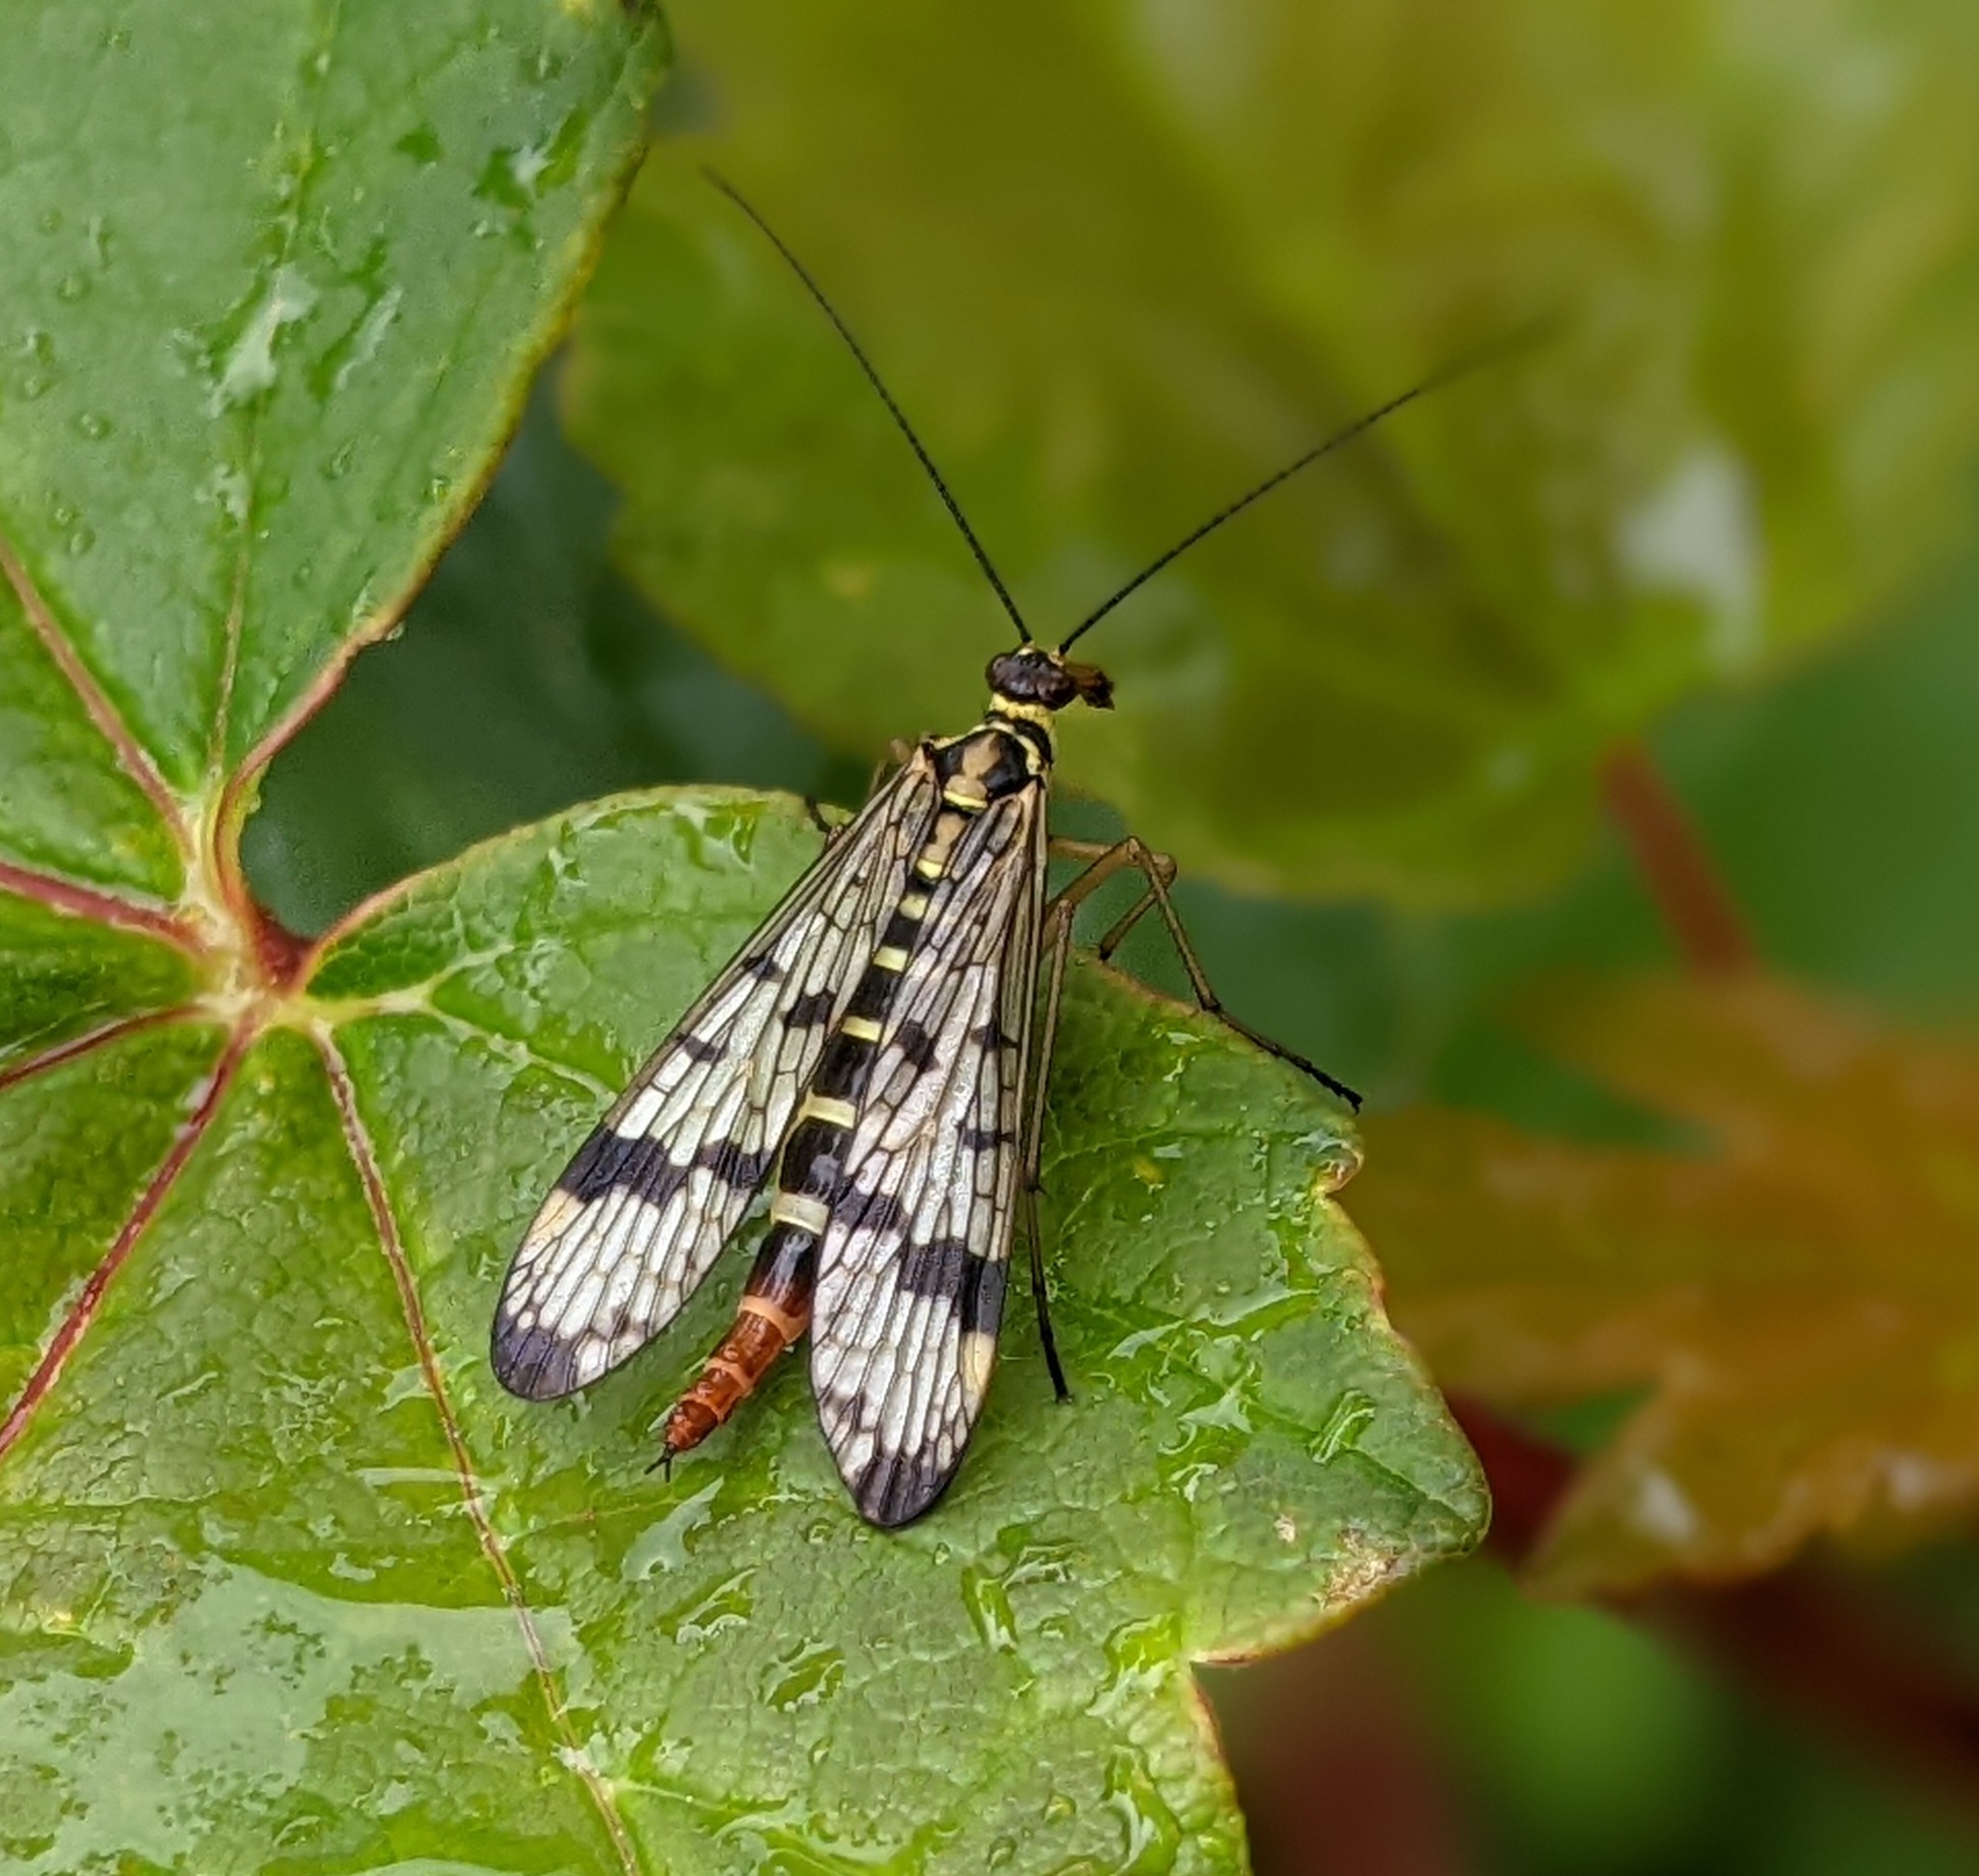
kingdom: Animalia
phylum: Arthropoda
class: Insecta
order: Mecoptera
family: Panorpidae
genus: Panorpa
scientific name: Panorpa communis
